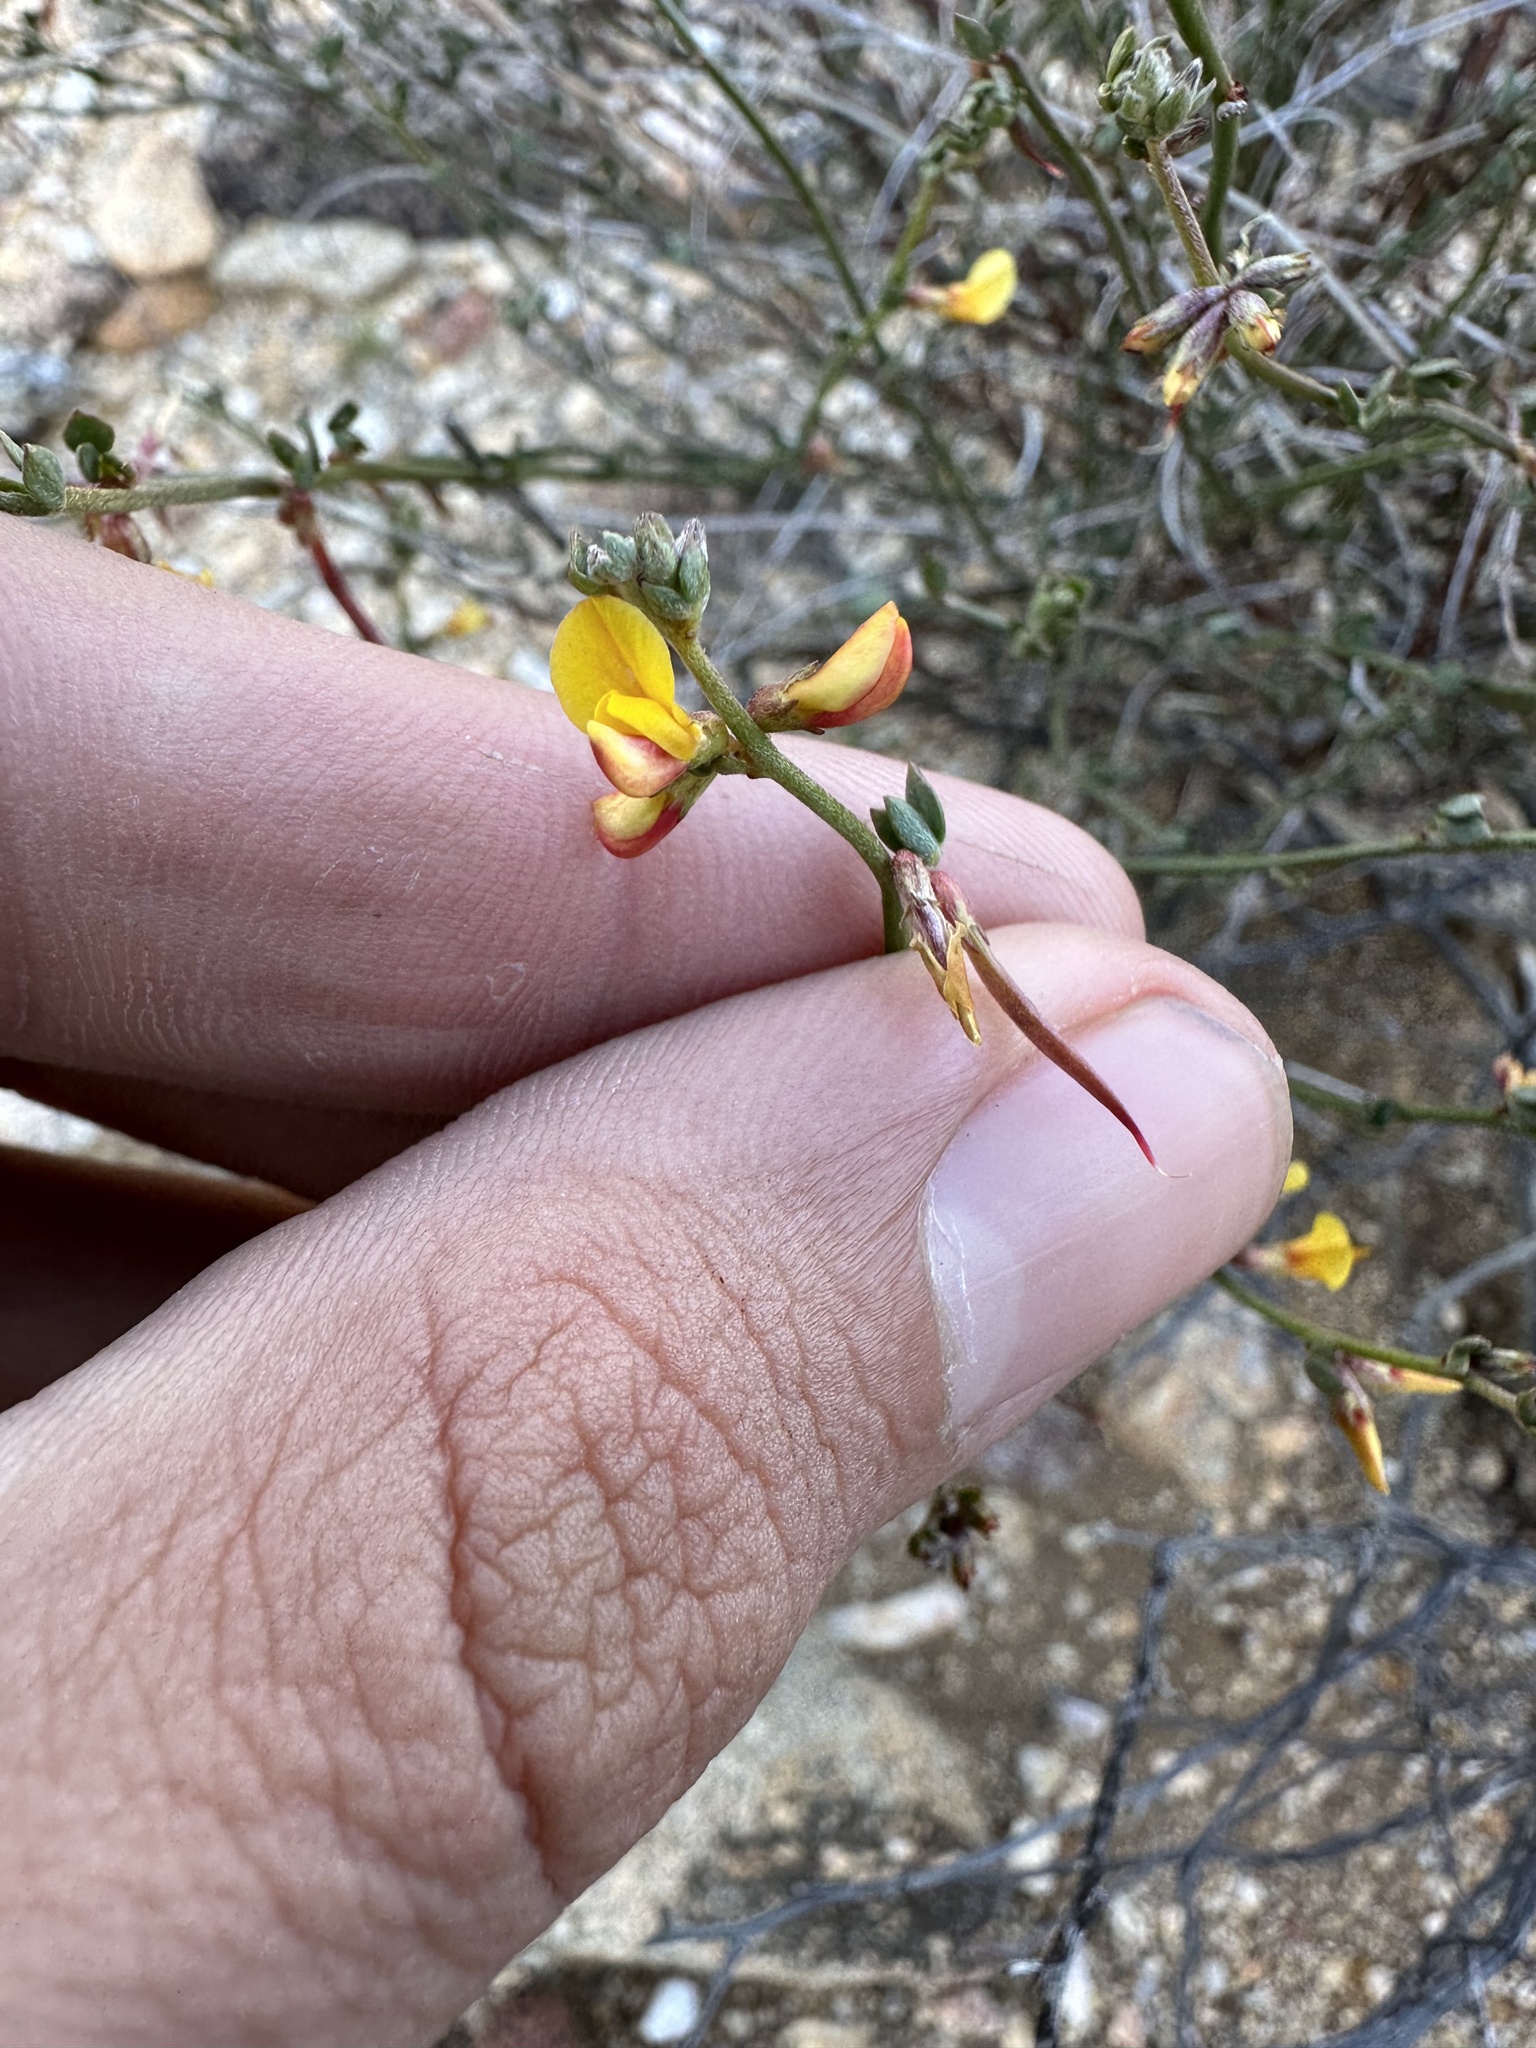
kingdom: Plantae
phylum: Tracheophyta
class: Magnoliopsida
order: Fabales
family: Fabaceae
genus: Acmispon
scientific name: Acmispon glaber
